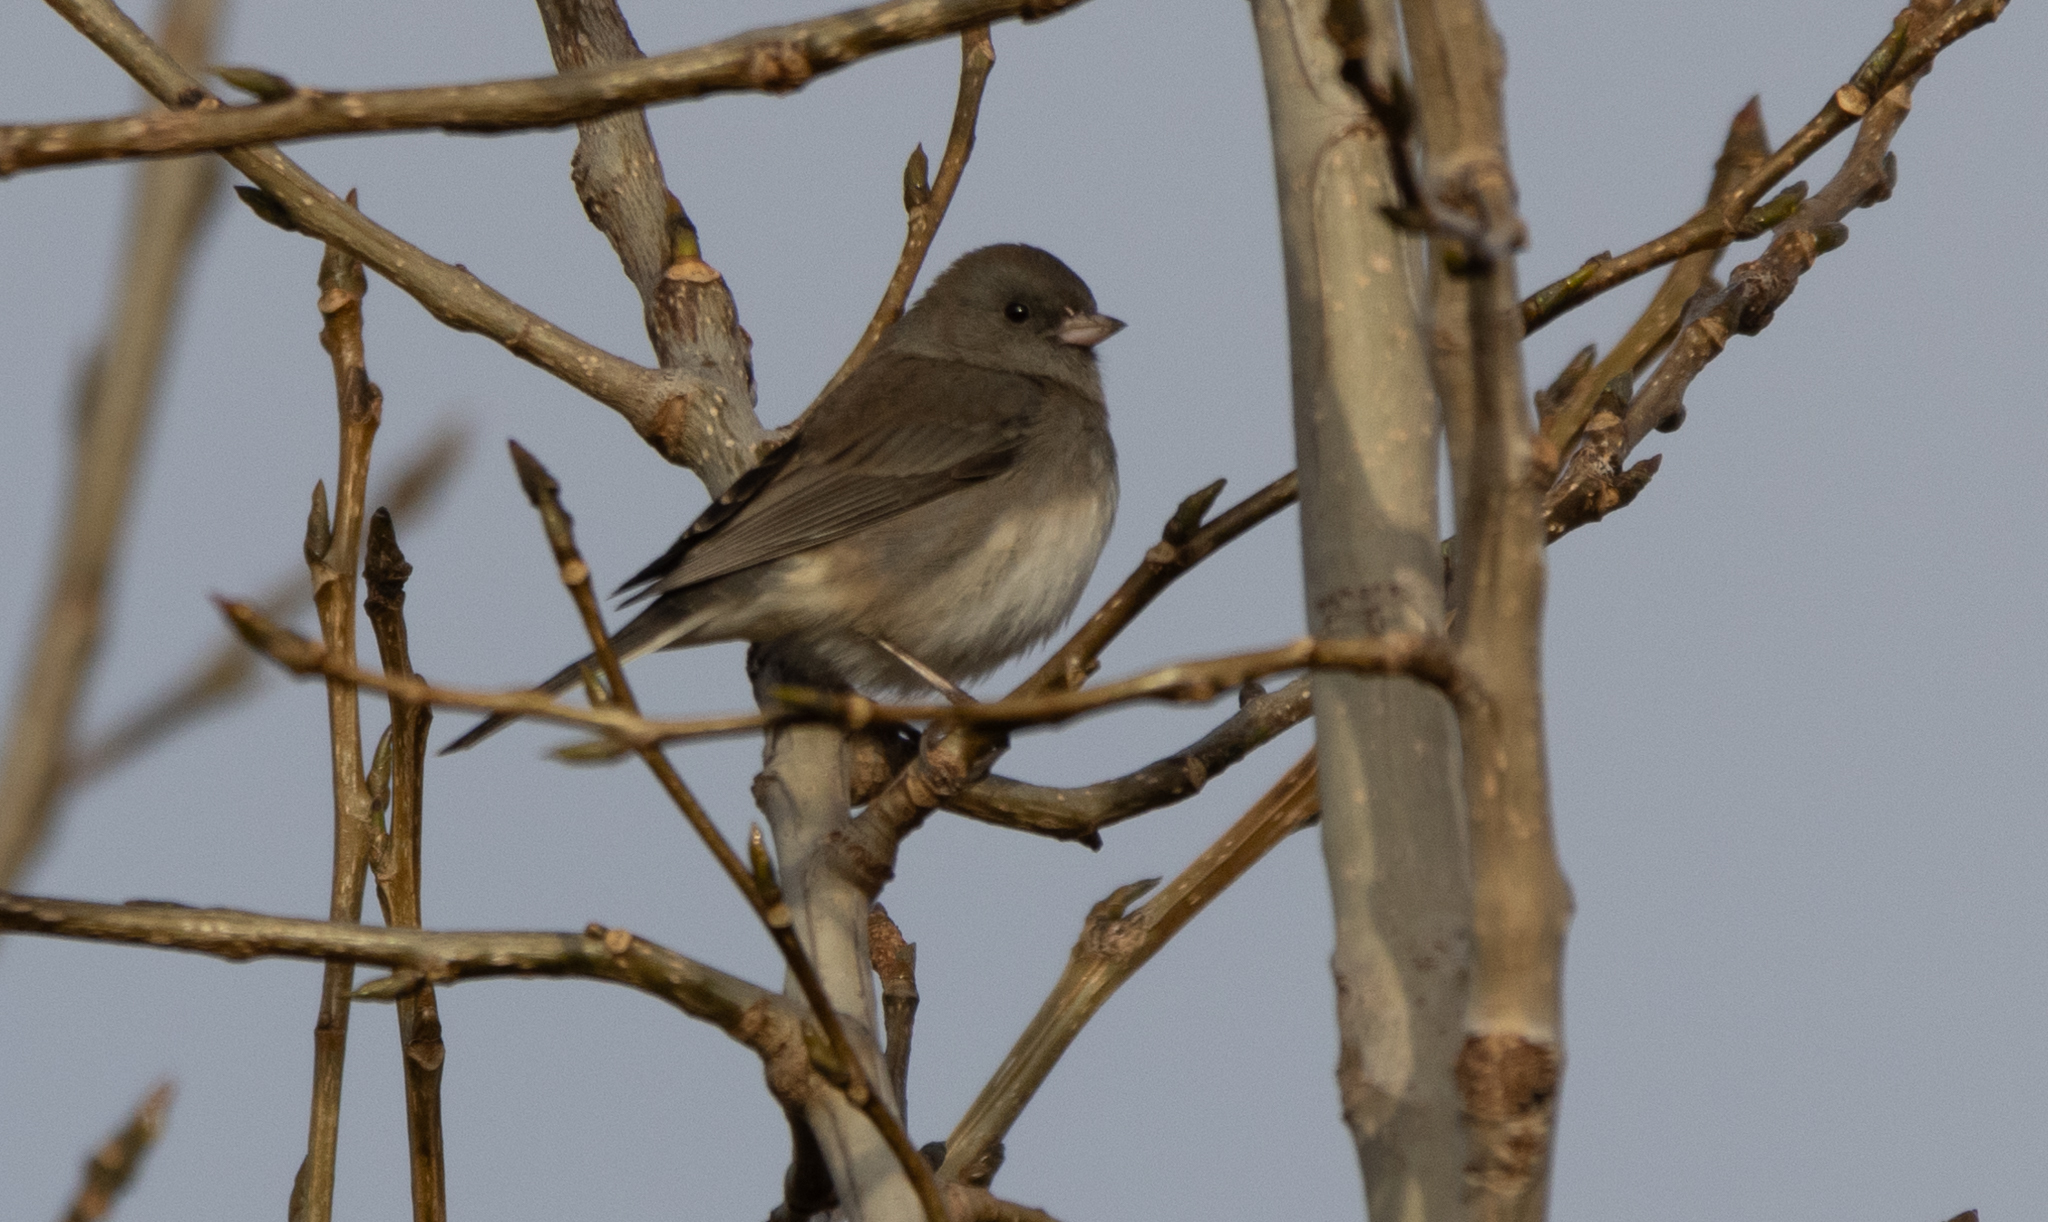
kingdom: Animalia
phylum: Chordata
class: Aves
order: Passeriformes
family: Passerellidae
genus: Junco
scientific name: Junco hyemalis
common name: Dark-eyed junco
